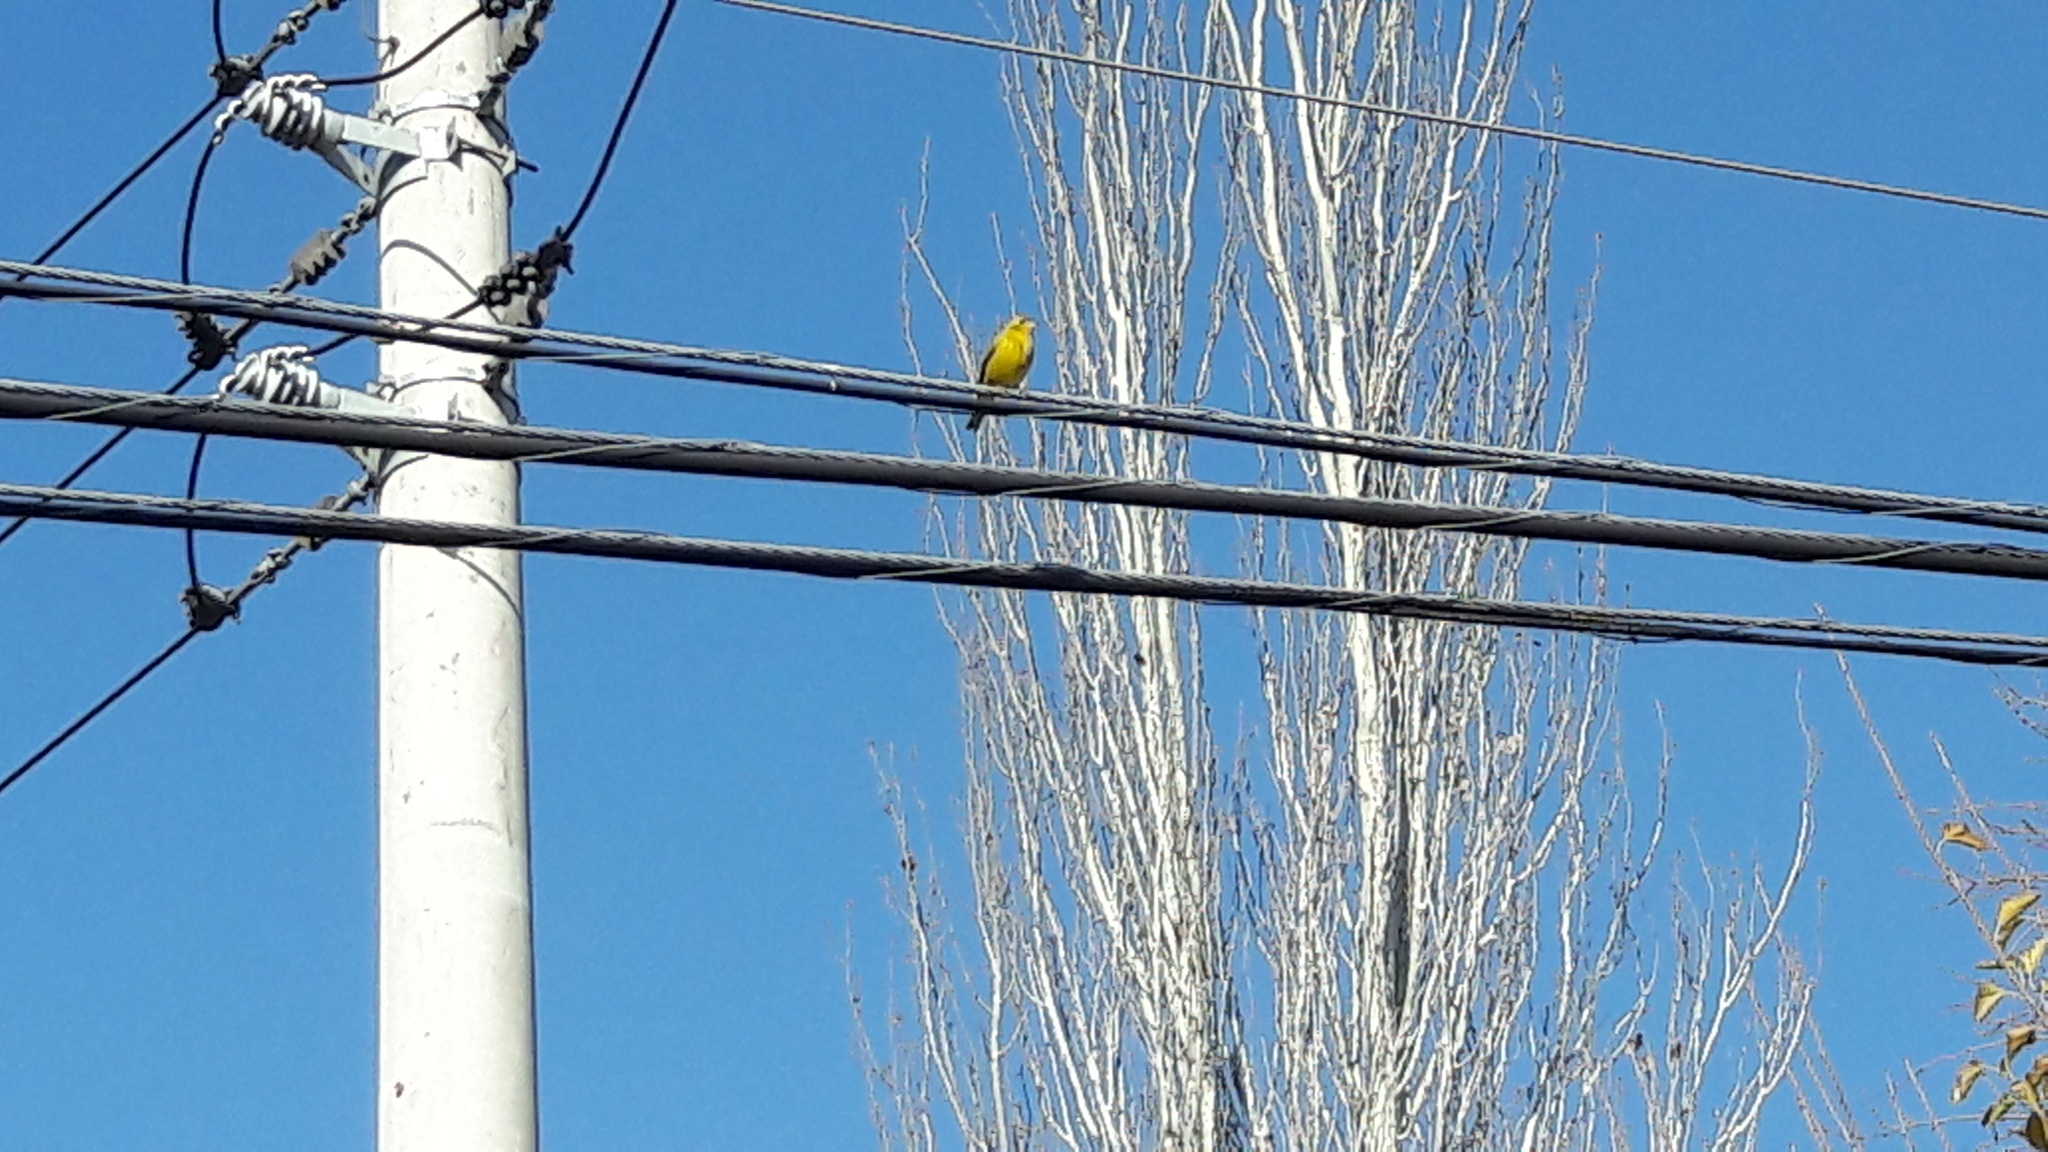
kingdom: Animalia
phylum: Chordata
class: Aves
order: Passeriformes
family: Thraupidae
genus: Sicalis
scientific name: Sicalis flaveola
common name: Saffron finch
